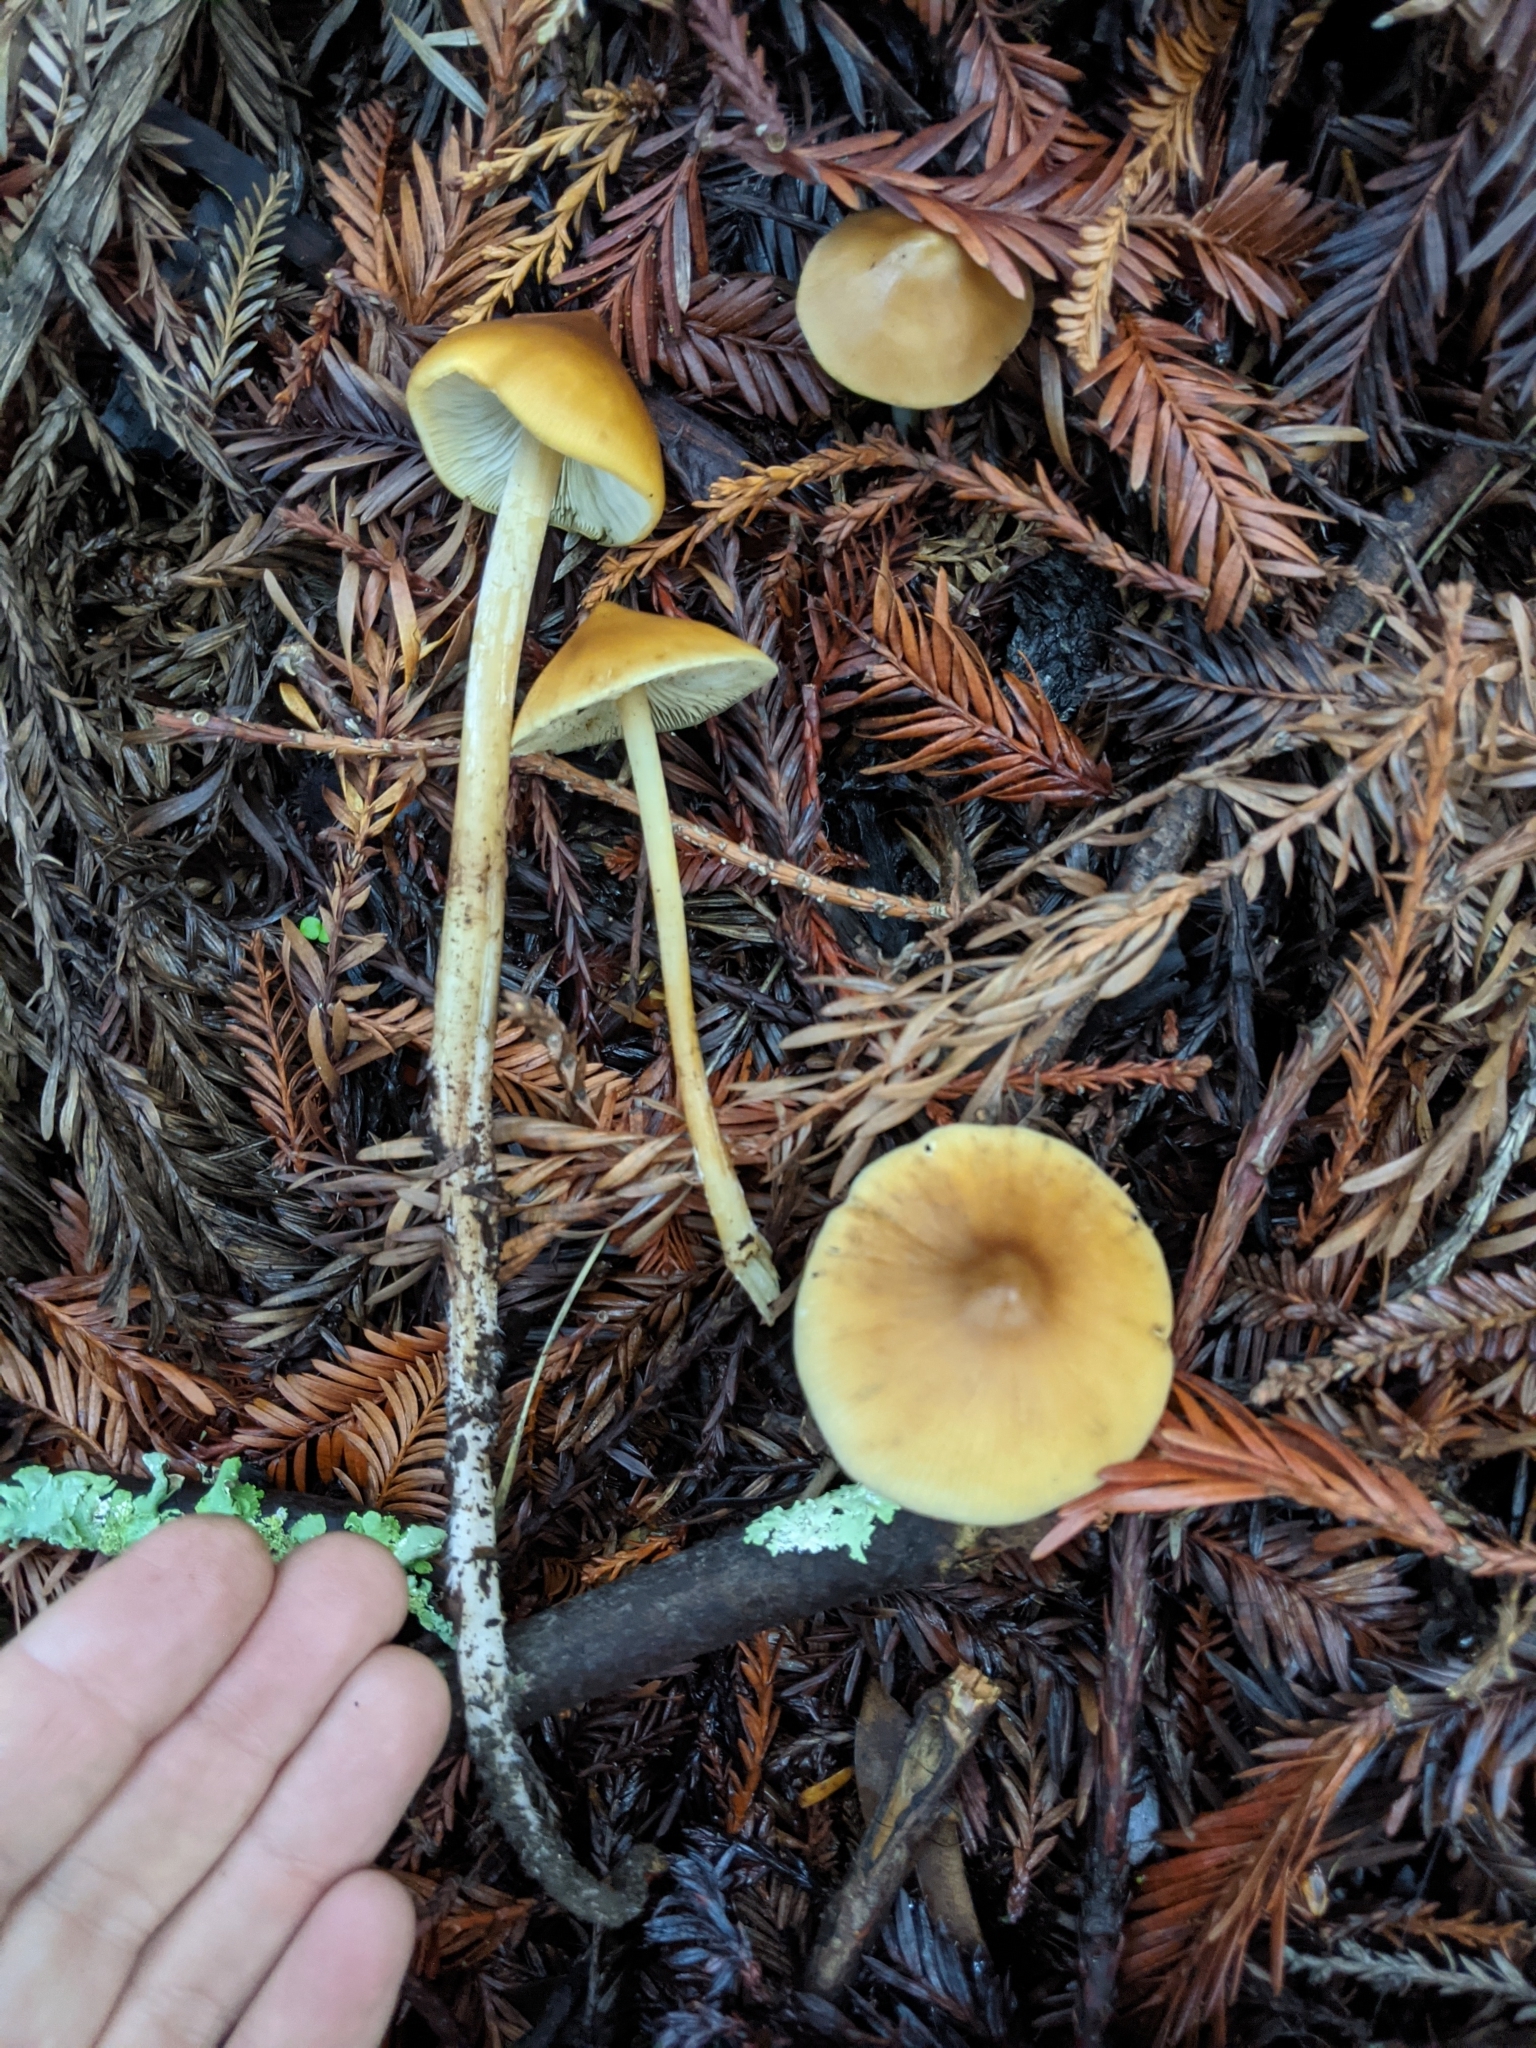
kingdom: Fungi
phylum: Basidiomycota
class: Agaricomycetes
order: Agaricales
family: Tricholomataceae
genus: Caulorhiza
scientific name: Caulorhiza umbonata
